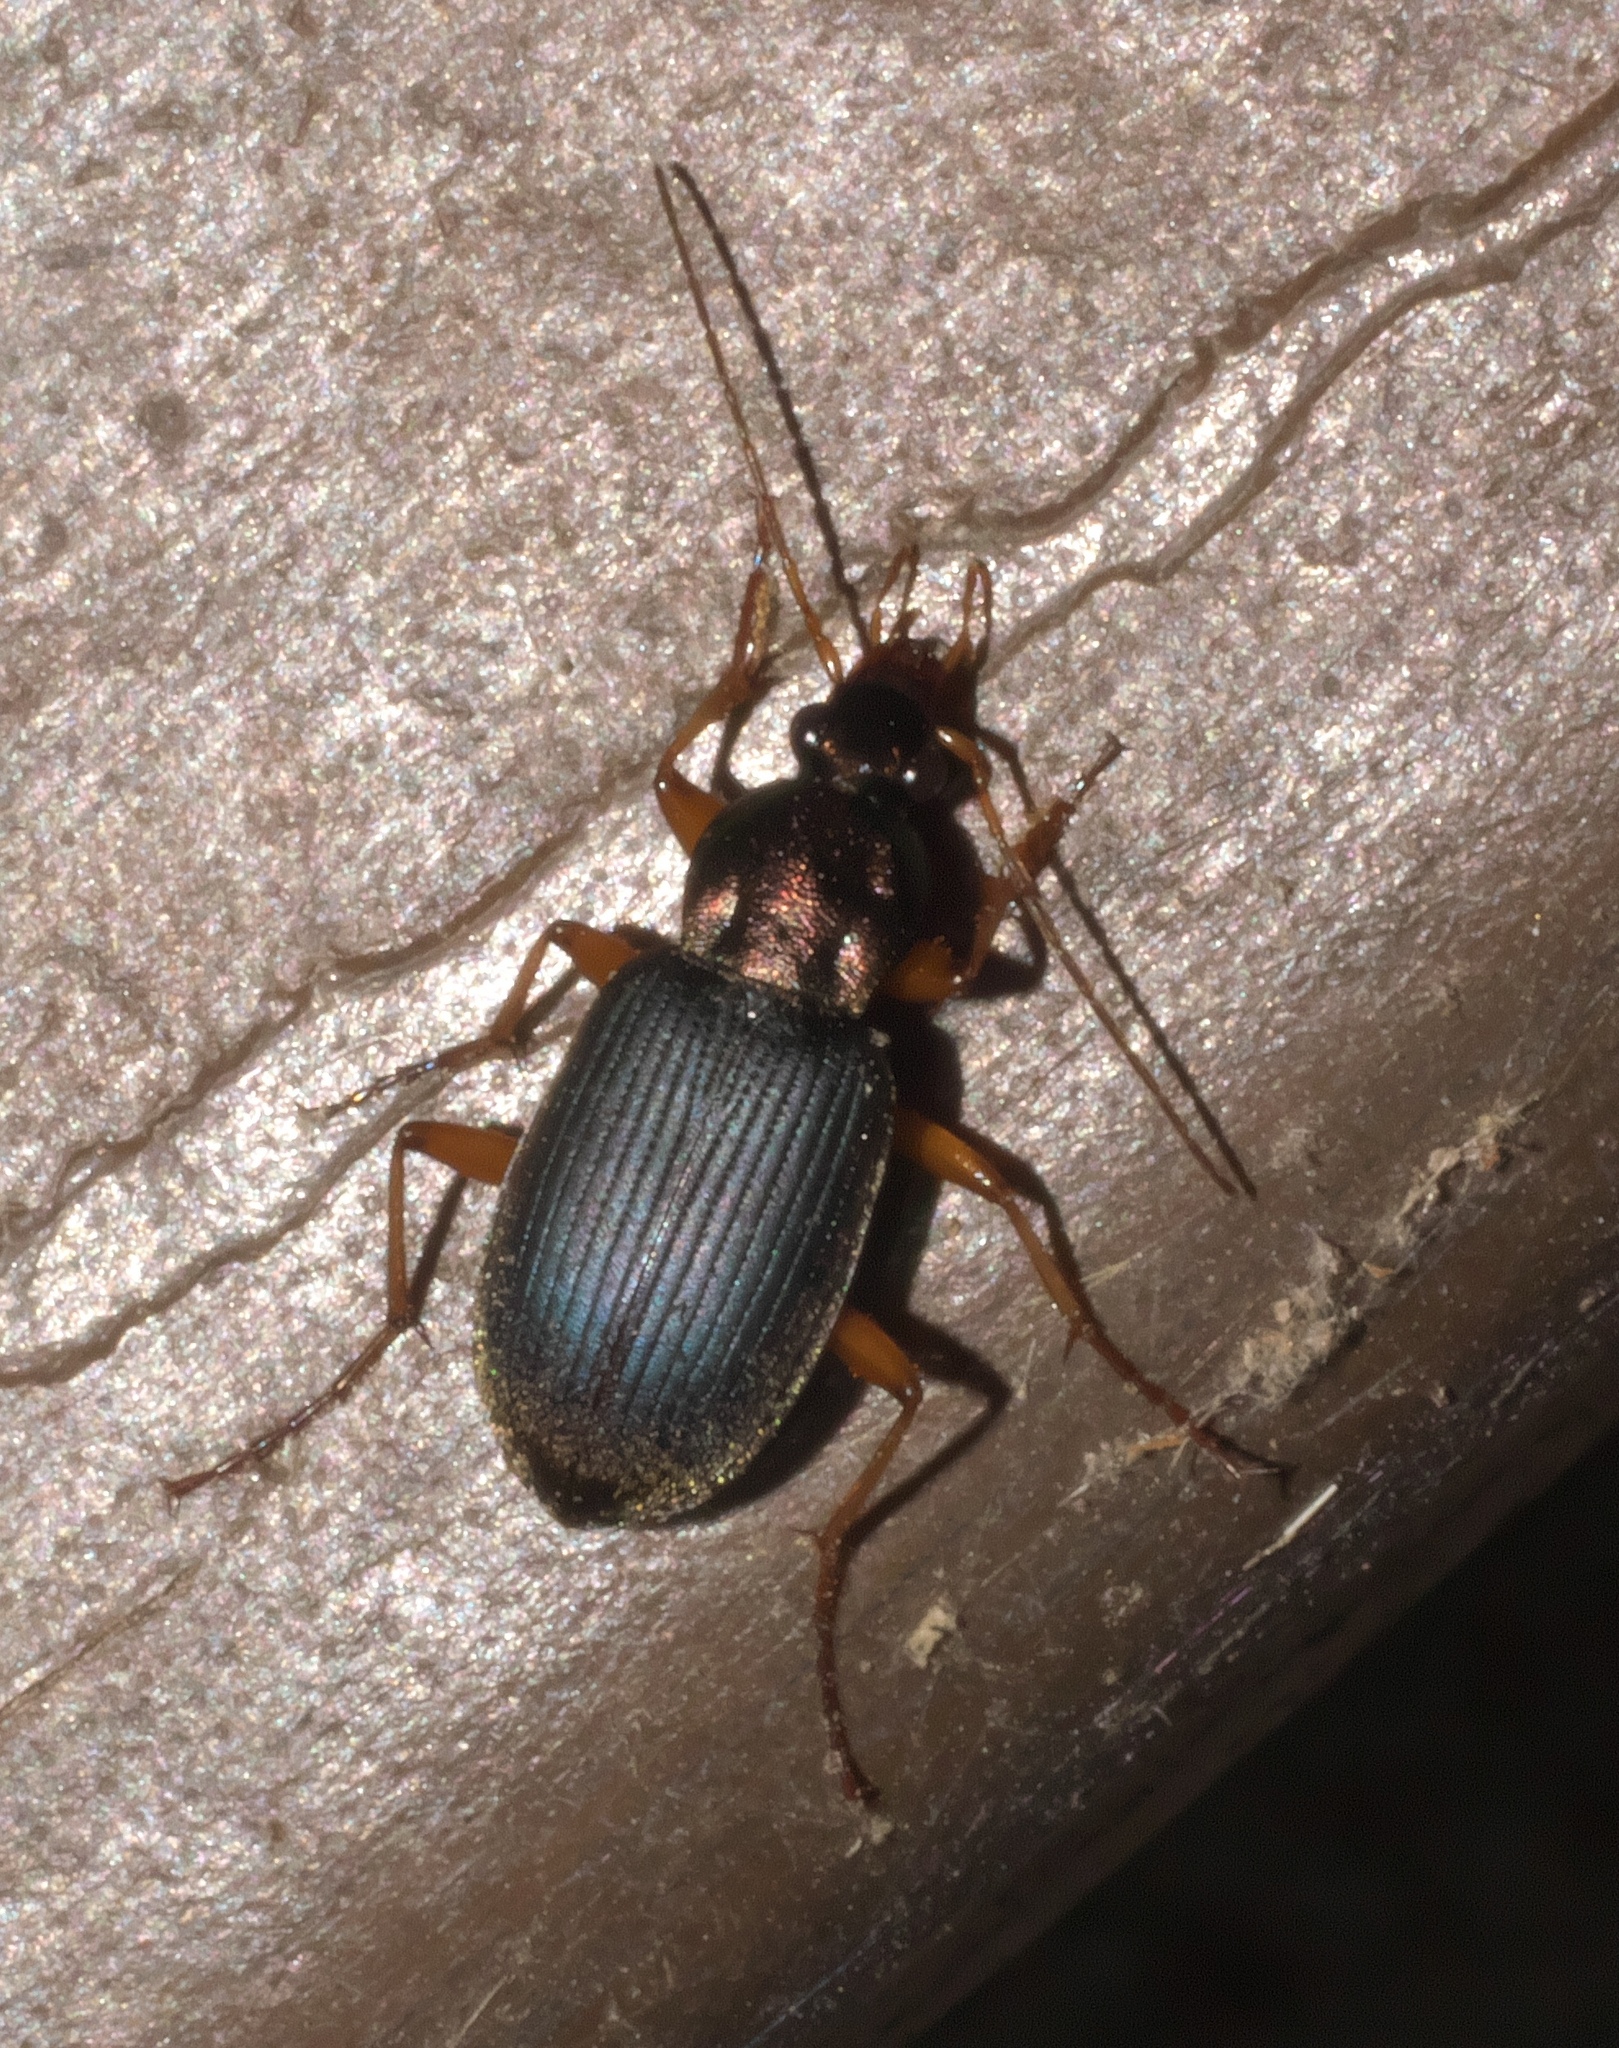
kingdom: Animalia
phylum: Arthropoda
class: Insecta
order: Coleoptera
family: Carabidae
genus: Chlaenius
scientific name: Chlaenius tricolor
